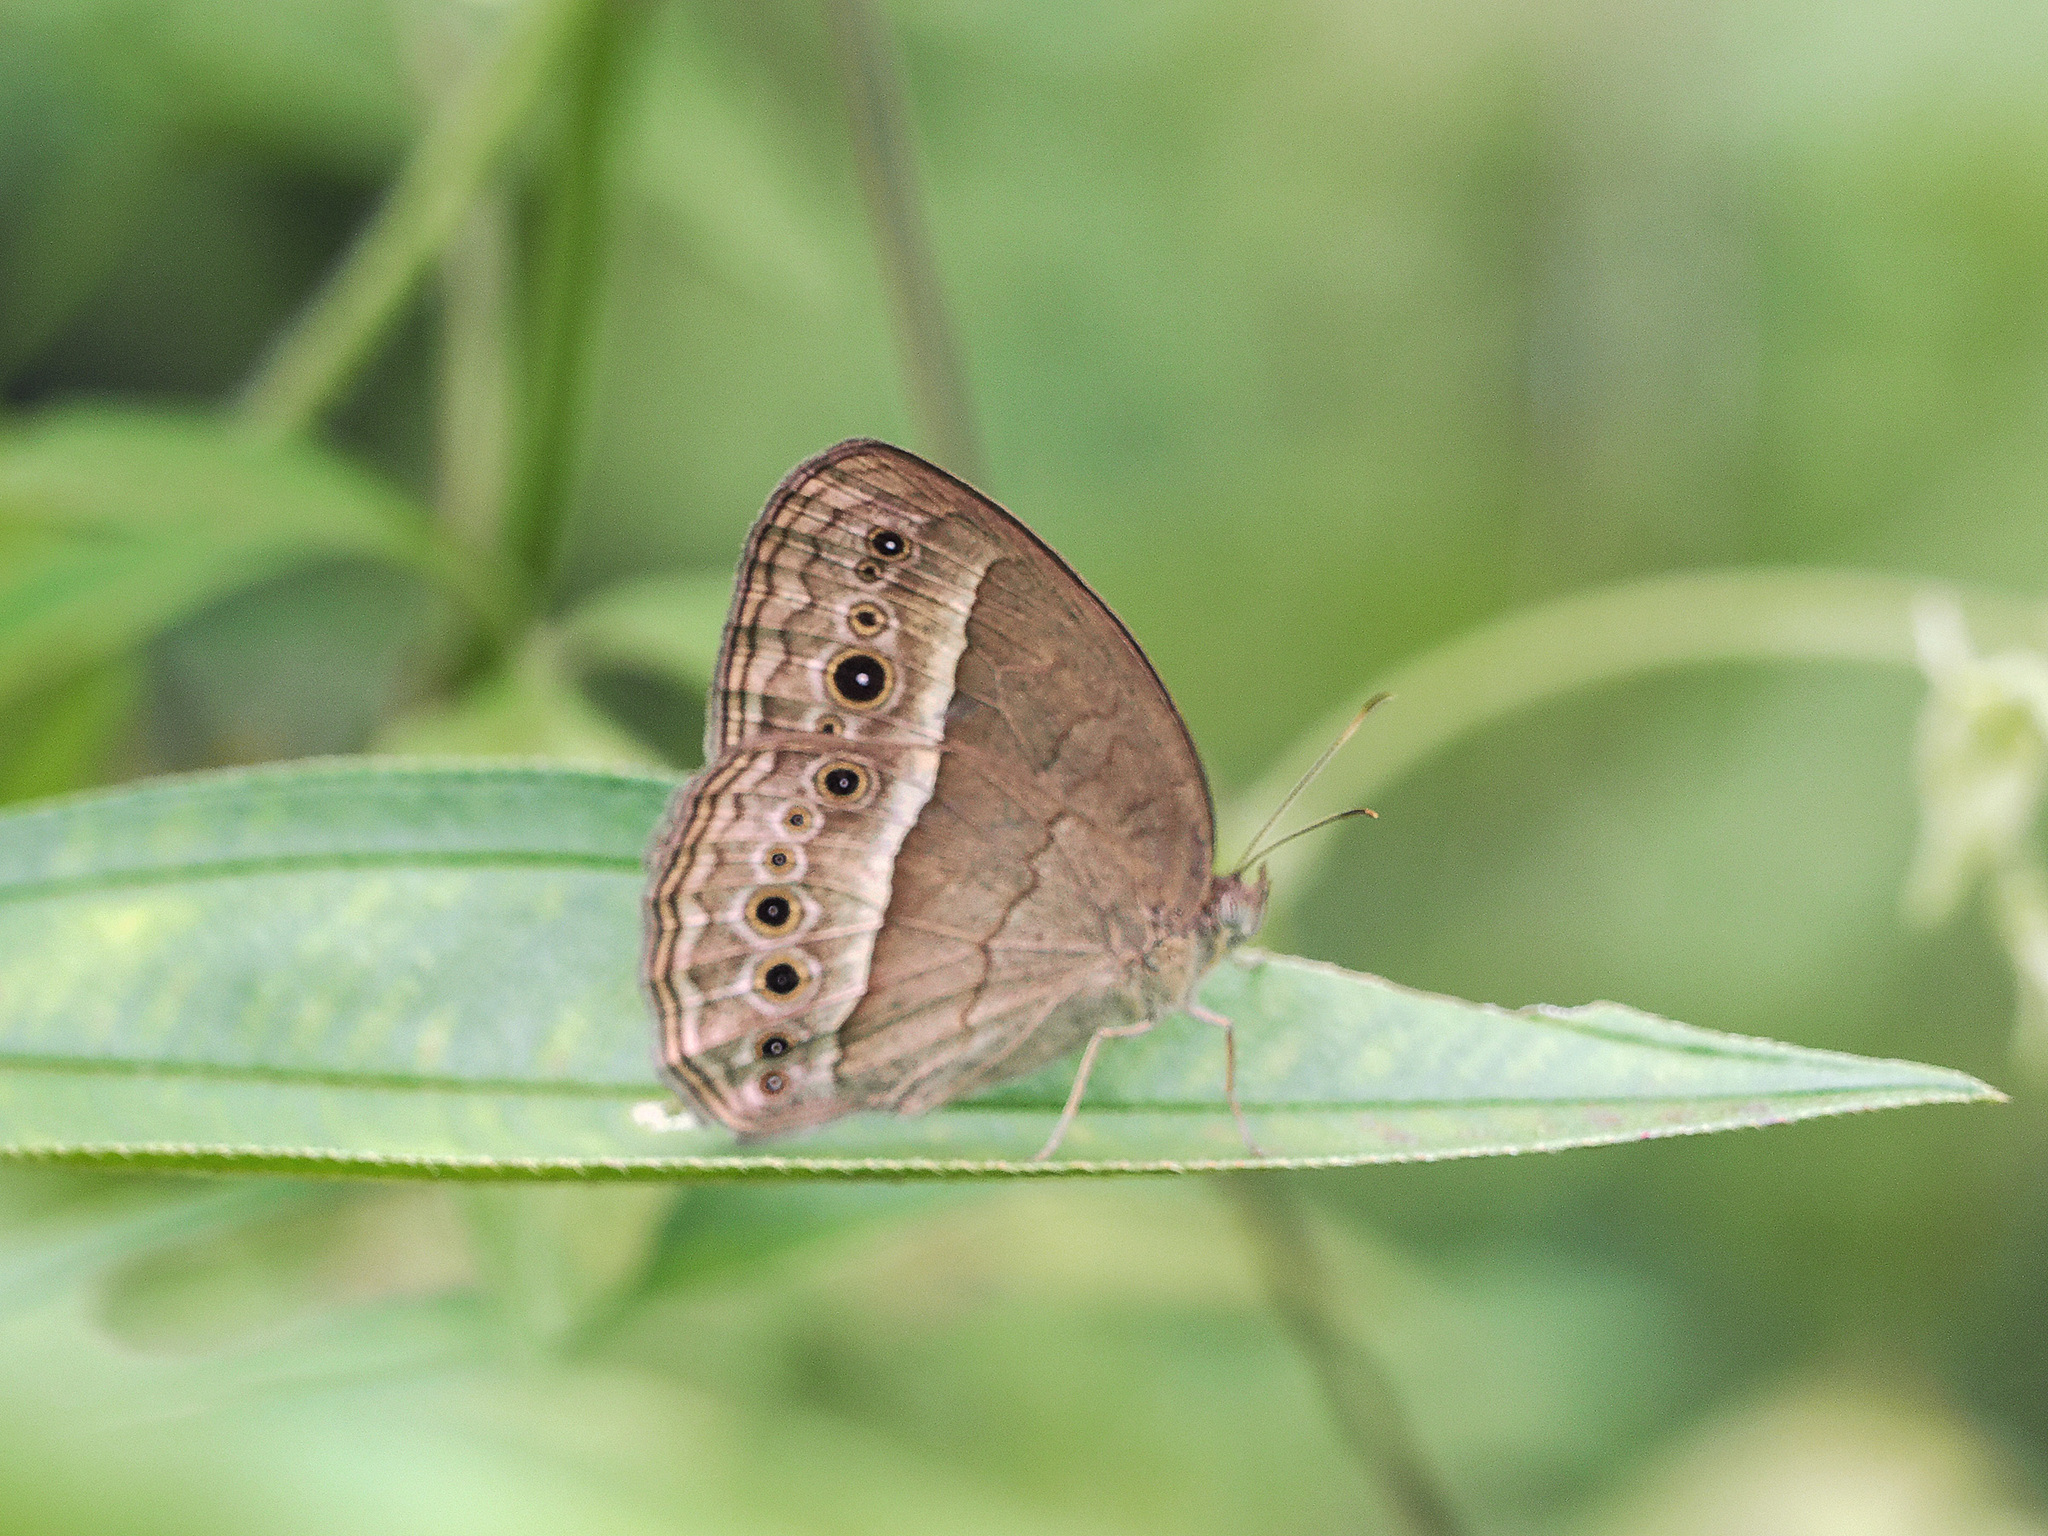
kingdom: Animalia
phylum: Arthropoda
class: Insecta
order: Lepidoptera
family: Nymphalidae
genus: Mycalesis
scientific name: Mycalesis perseoides
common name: Burmese bushbrown
